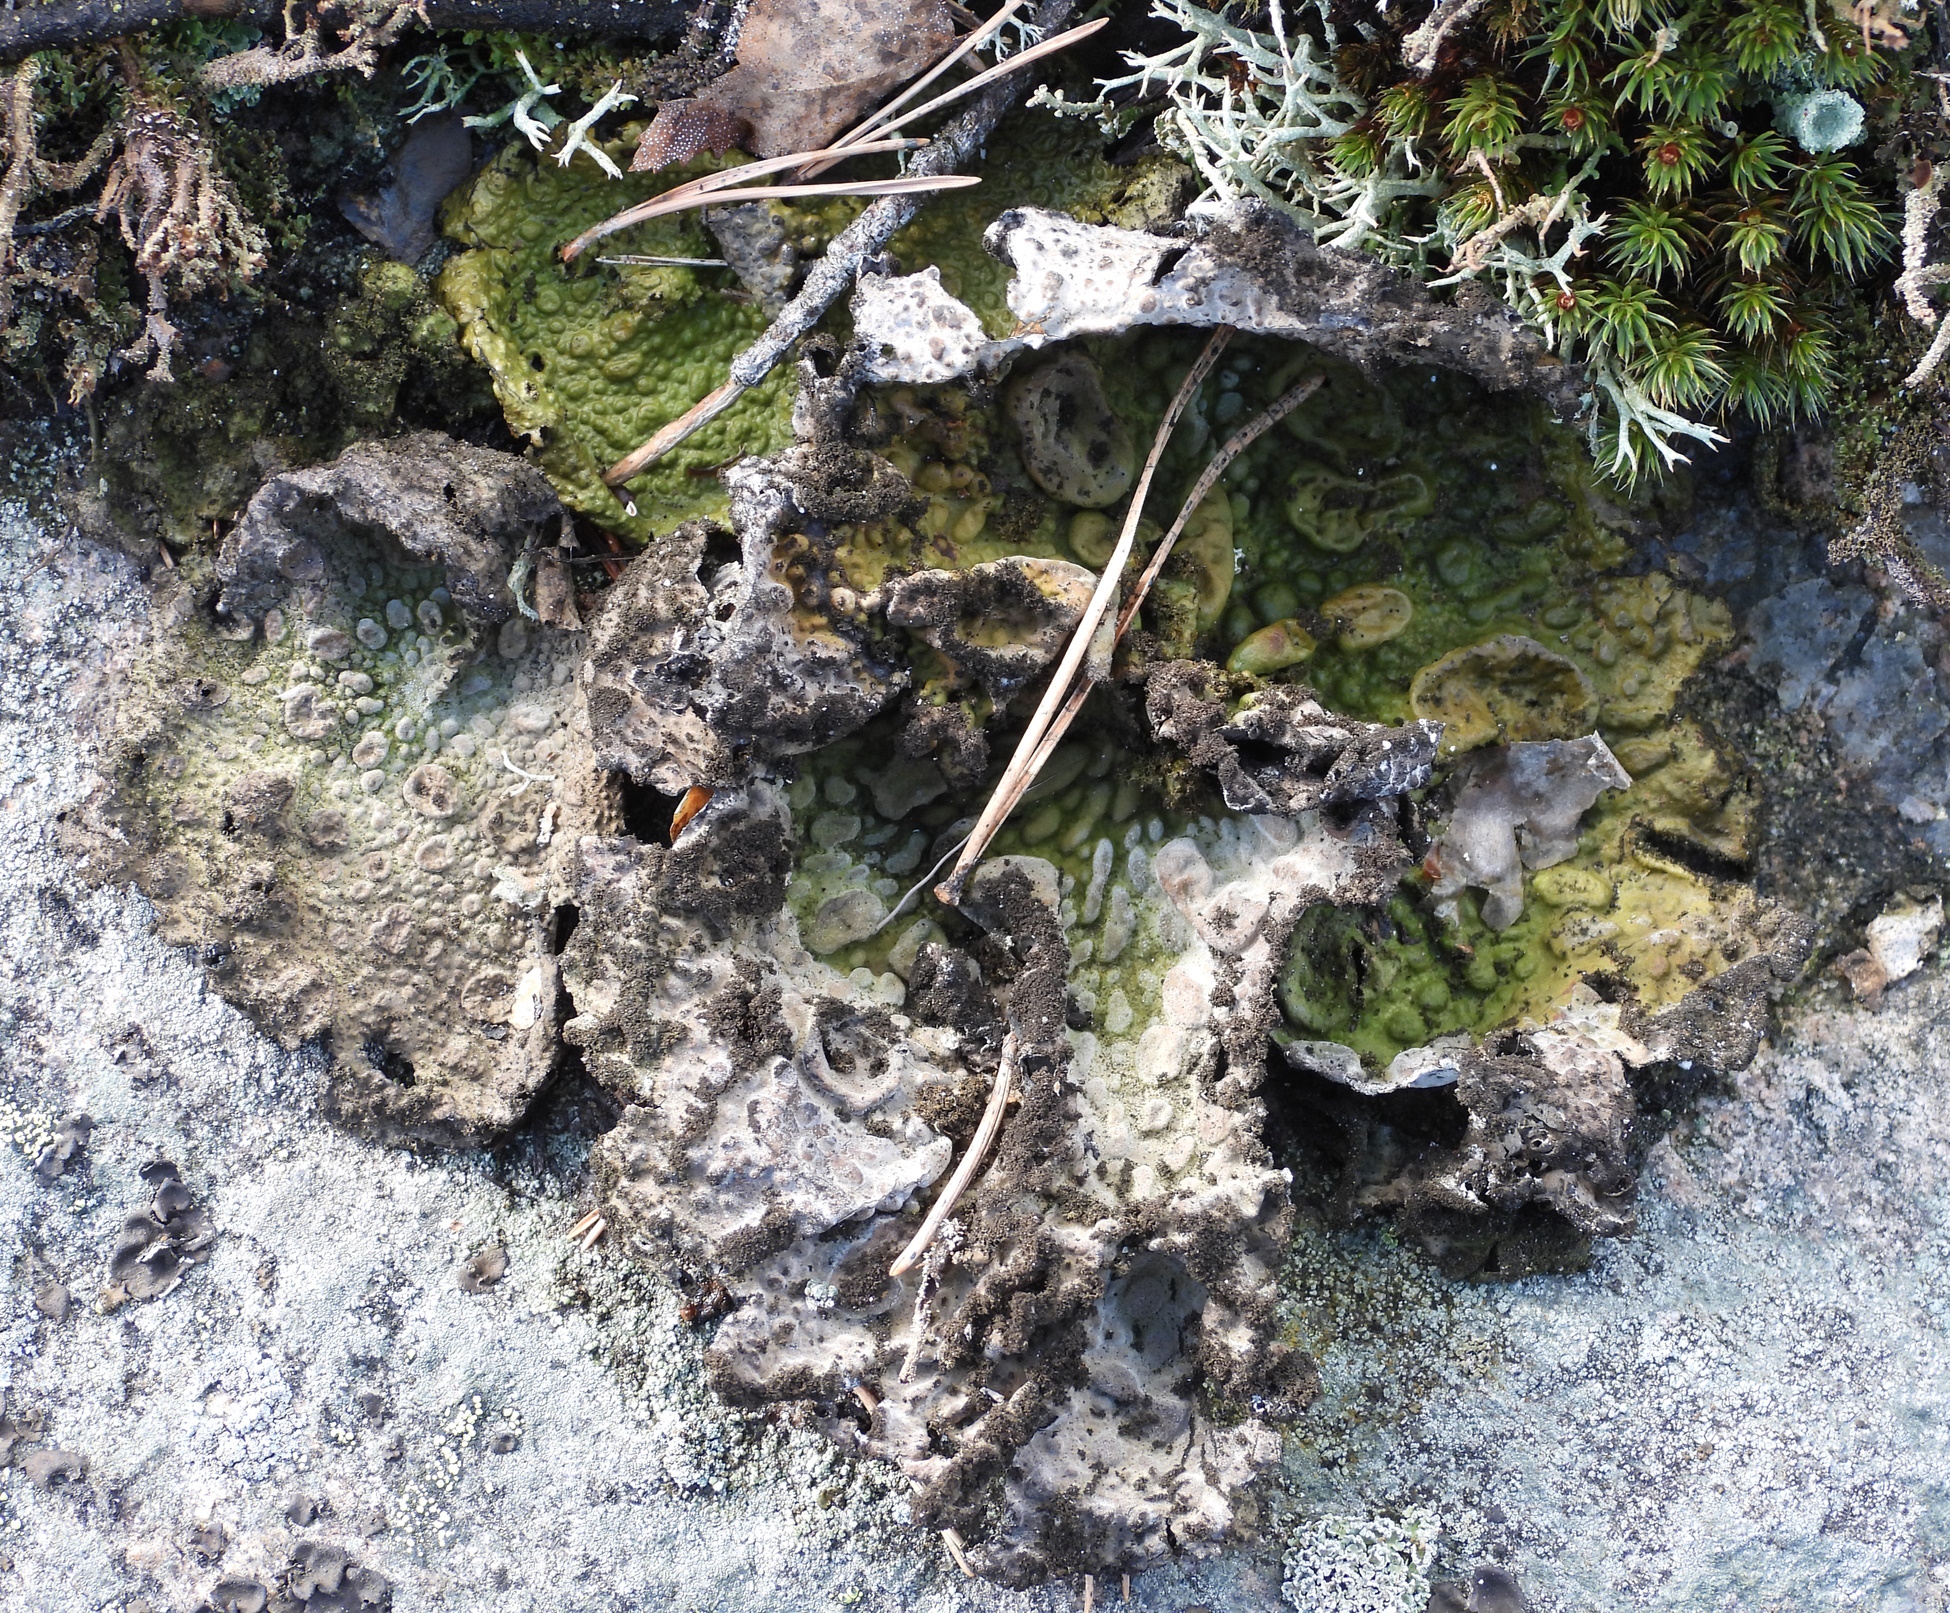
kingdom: Fungi
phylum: Ascomycota
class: Lecanoromycetes
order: Umbilicariales
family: Umbilicariaceae
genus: Lasallia
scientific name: Lasallia pustulata
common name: Blistered toadskin lichen
